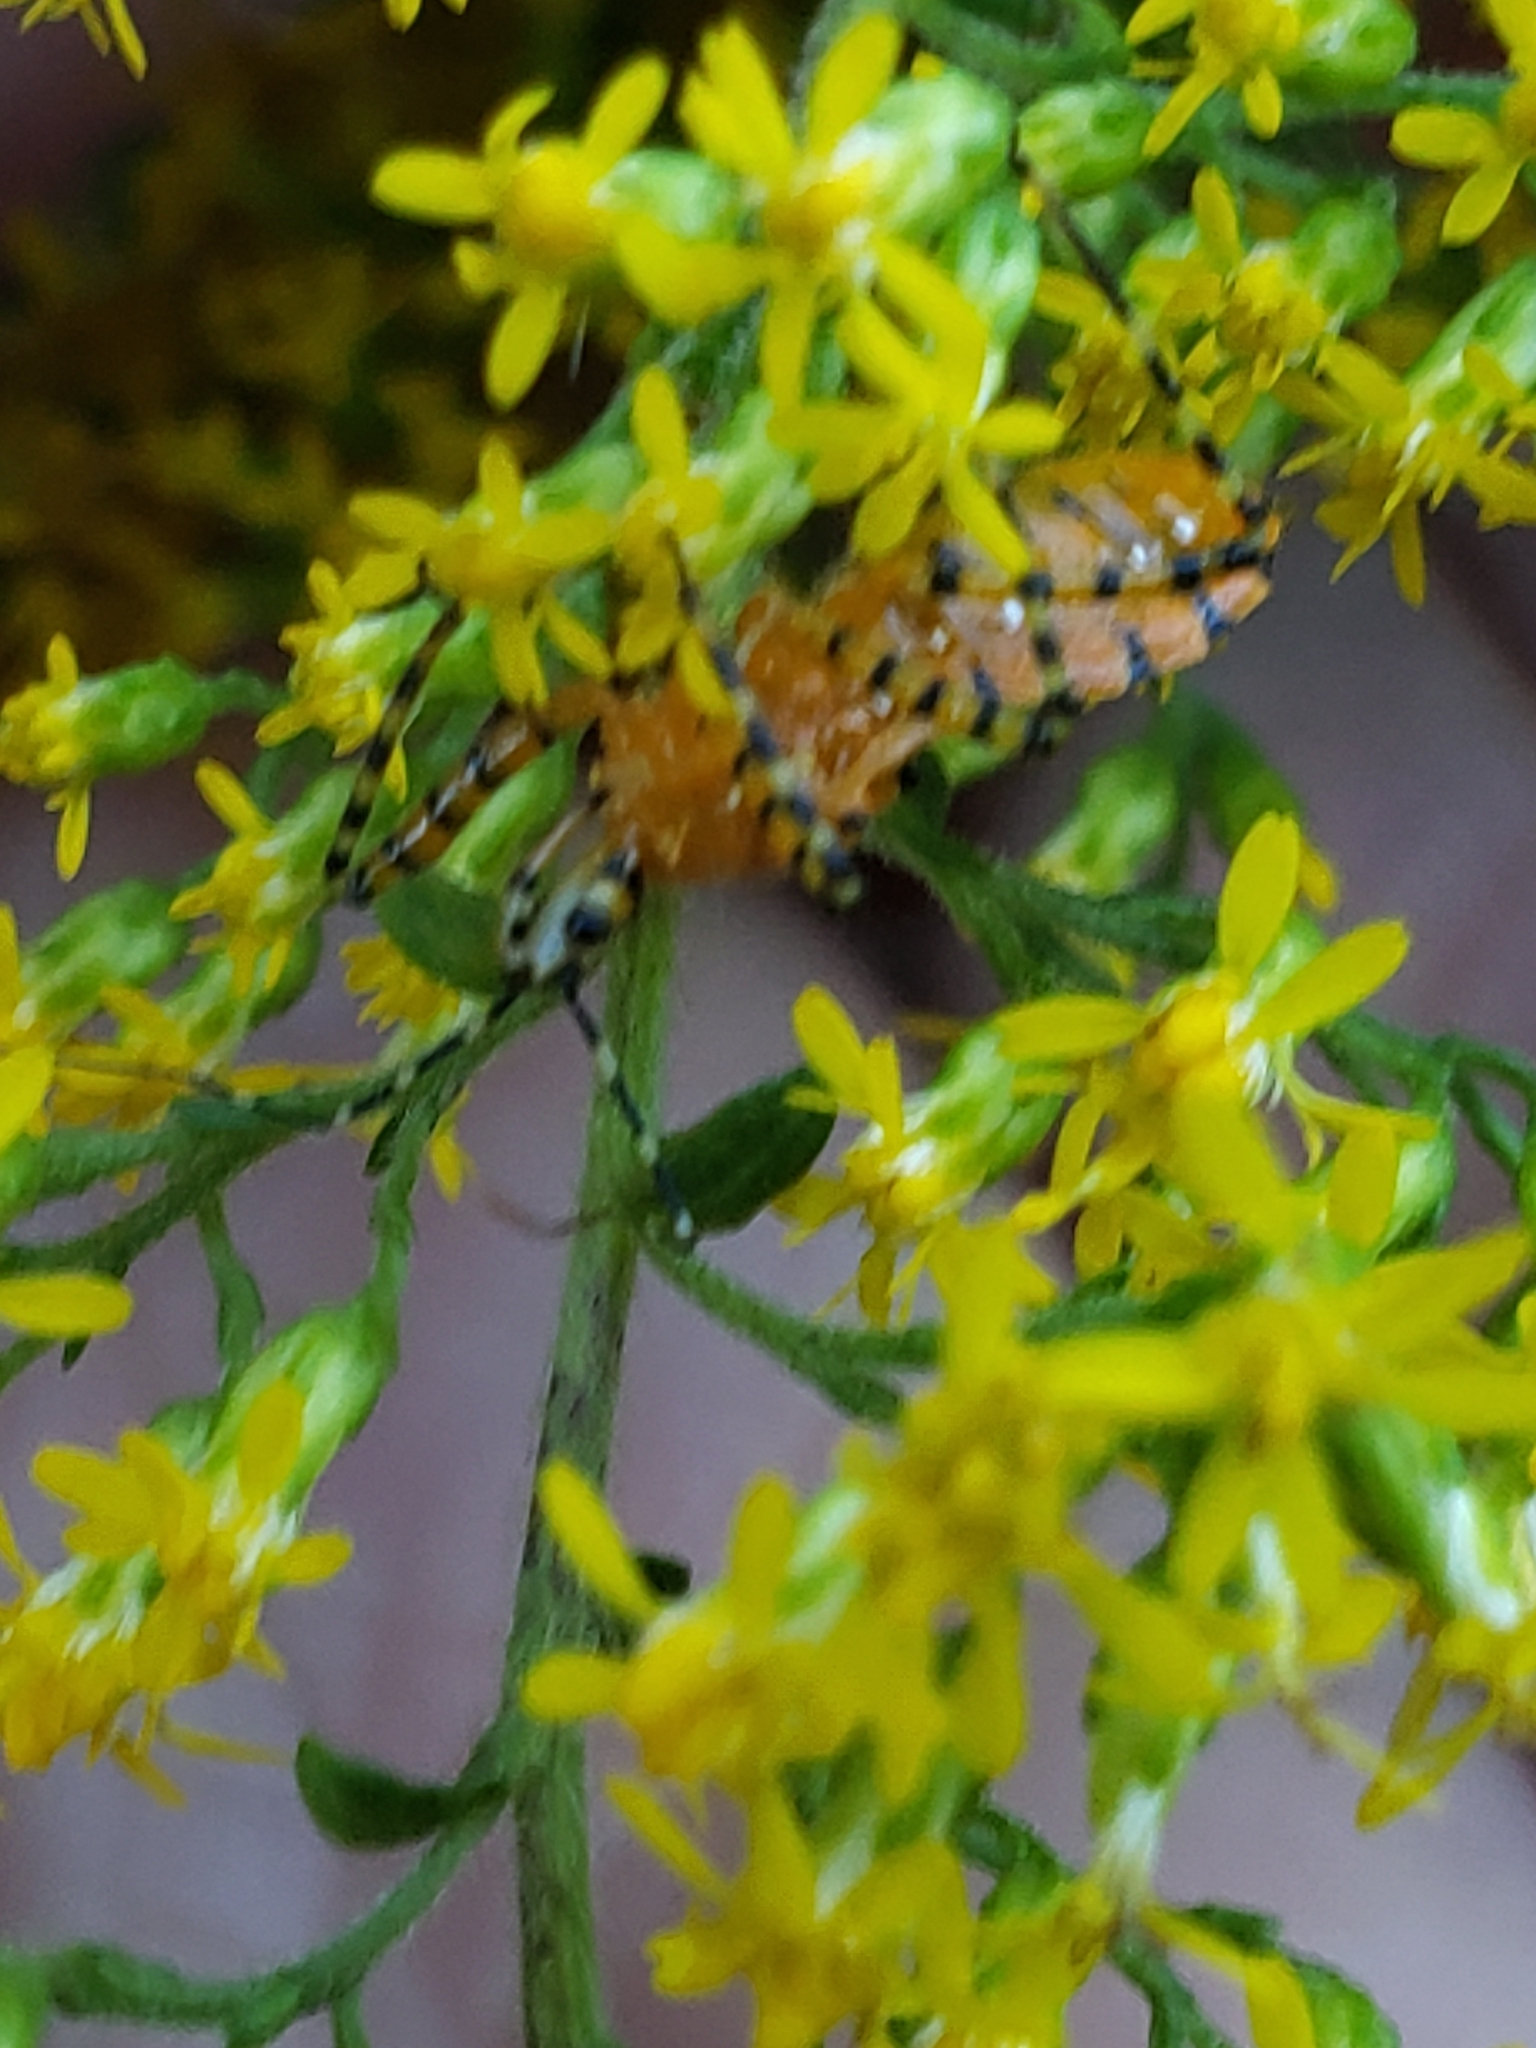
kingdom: Animalia
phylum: Arthropoda
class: Insecta
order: Hemiptera
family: Reduviidae
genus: Pselliopus
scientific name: Pselliopus barberi
